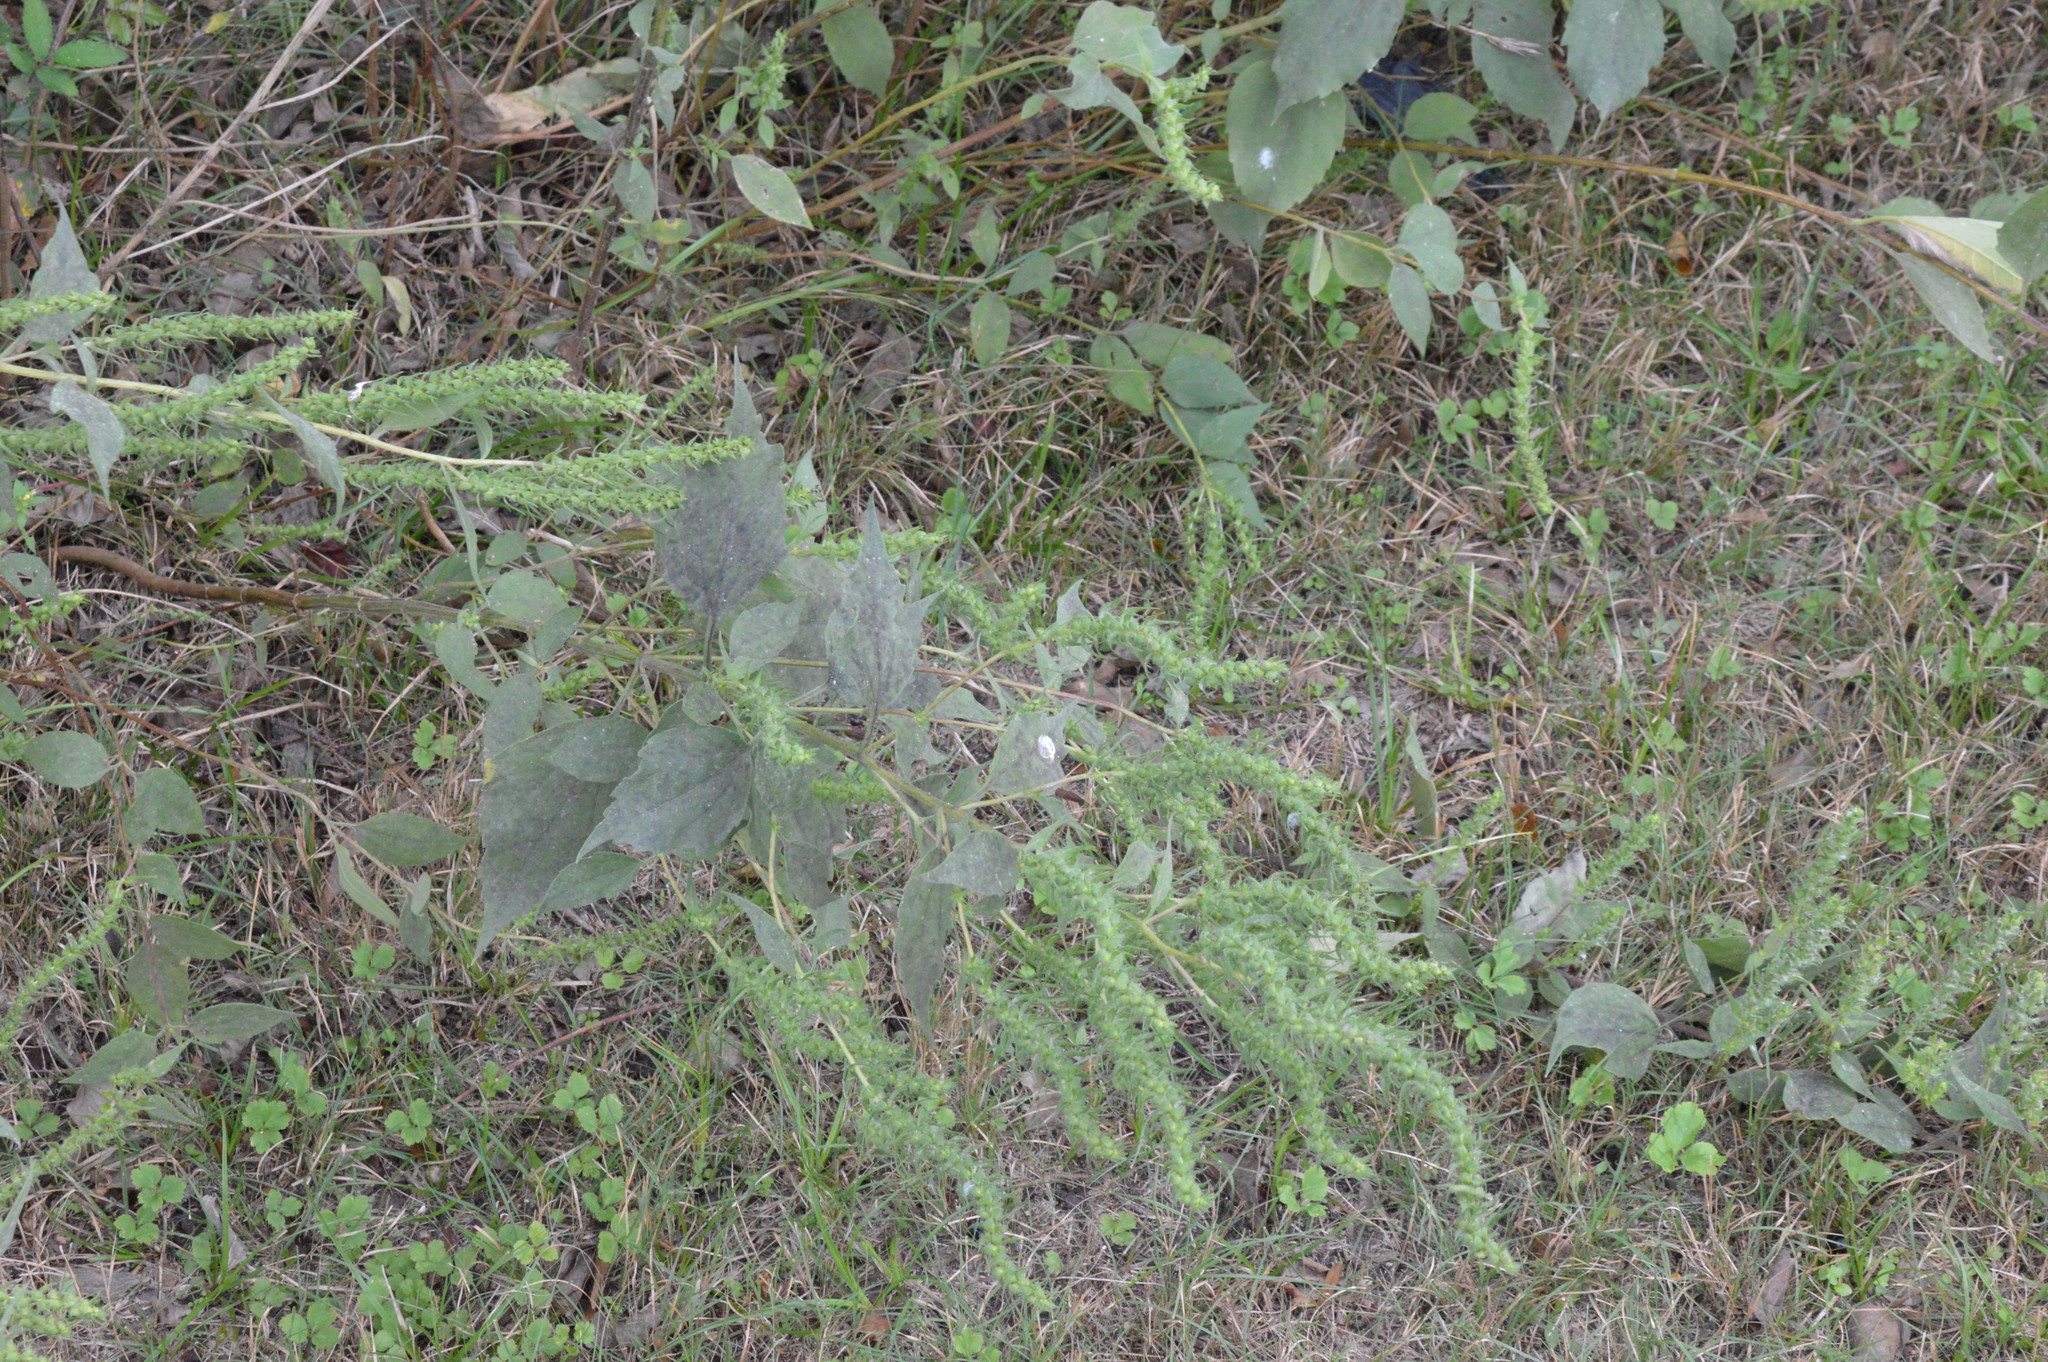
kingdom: Plantae
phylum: Tracheophyta
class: Magnoliopsida
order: Asterales
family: Asteraceae
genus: Iva
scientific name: Iva annua
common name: Marsh-elder
